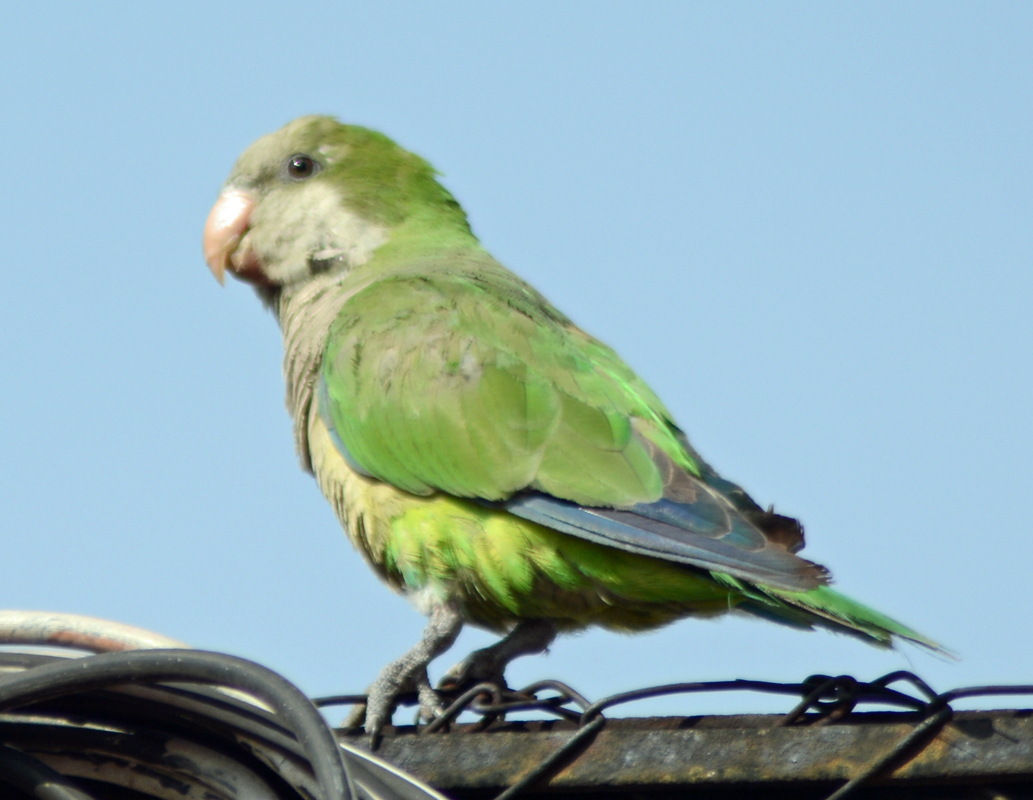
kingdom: Animalia
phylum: Chordata
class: Aves
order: Psittaciformes
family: Psittacidae
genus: Myiopsitta
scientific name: Myiopsitta monachus
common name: Monk parakeet
